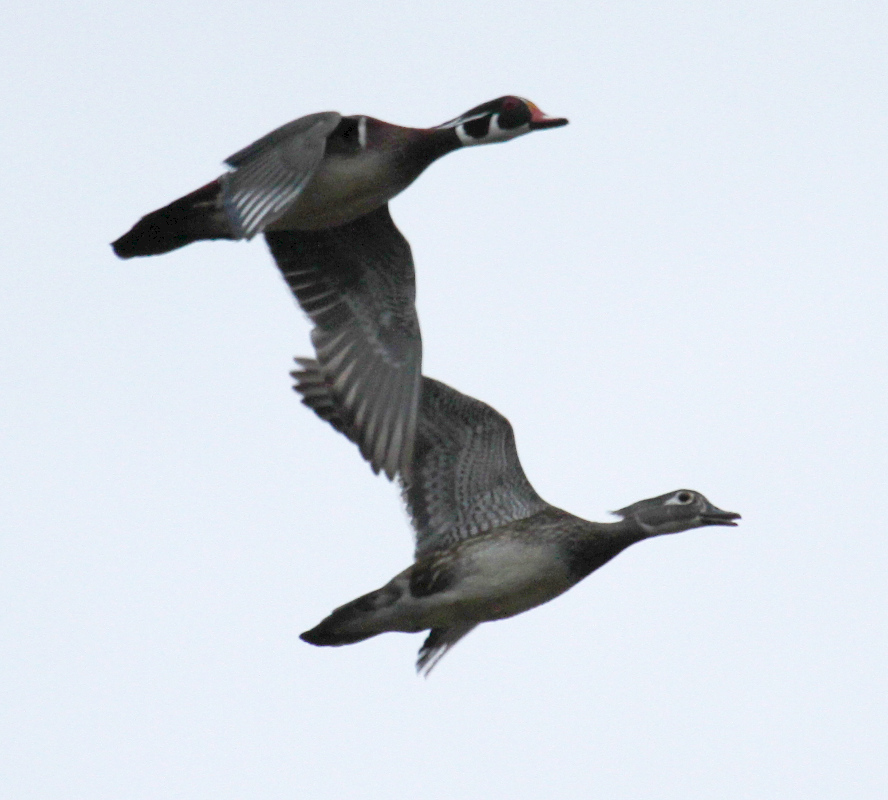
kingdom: Animalia
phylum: Chordata
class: Aves
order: Anseriformes
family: Anatidae
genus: Aix
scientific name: Aix sponsa
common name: Wood duck
